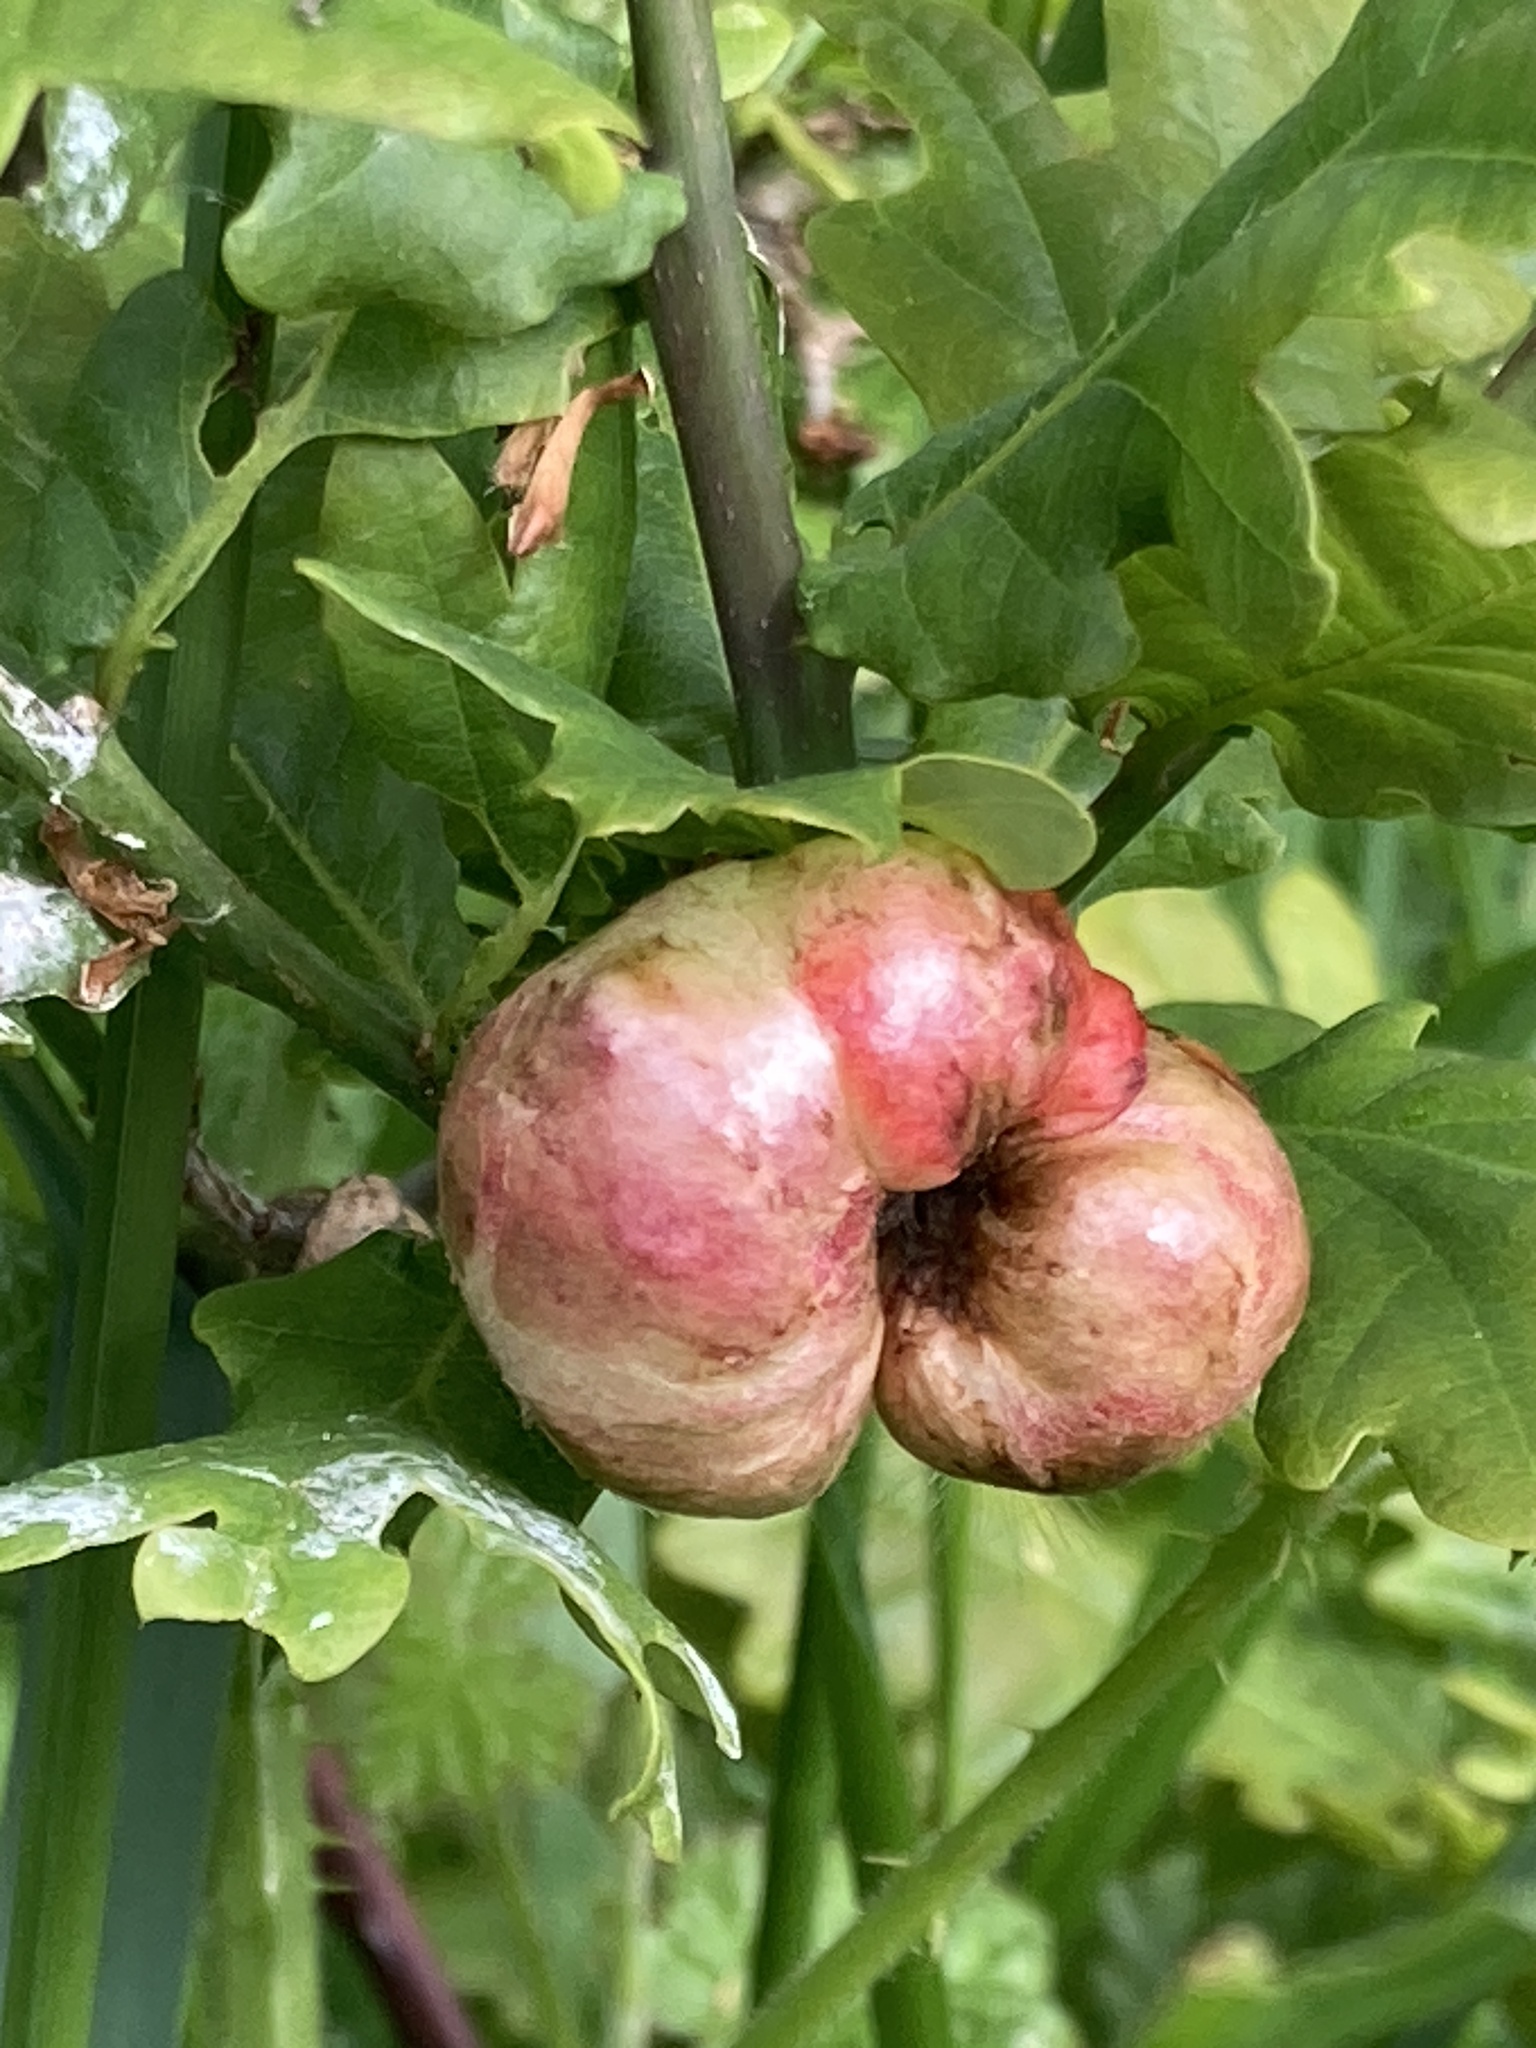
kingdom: Animalia
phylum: Arthropoda
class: Insecta
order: Hymenoptera
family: Cynipidae
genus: Biorhiza
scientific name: Biorhiza pallida
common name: Oak apple
